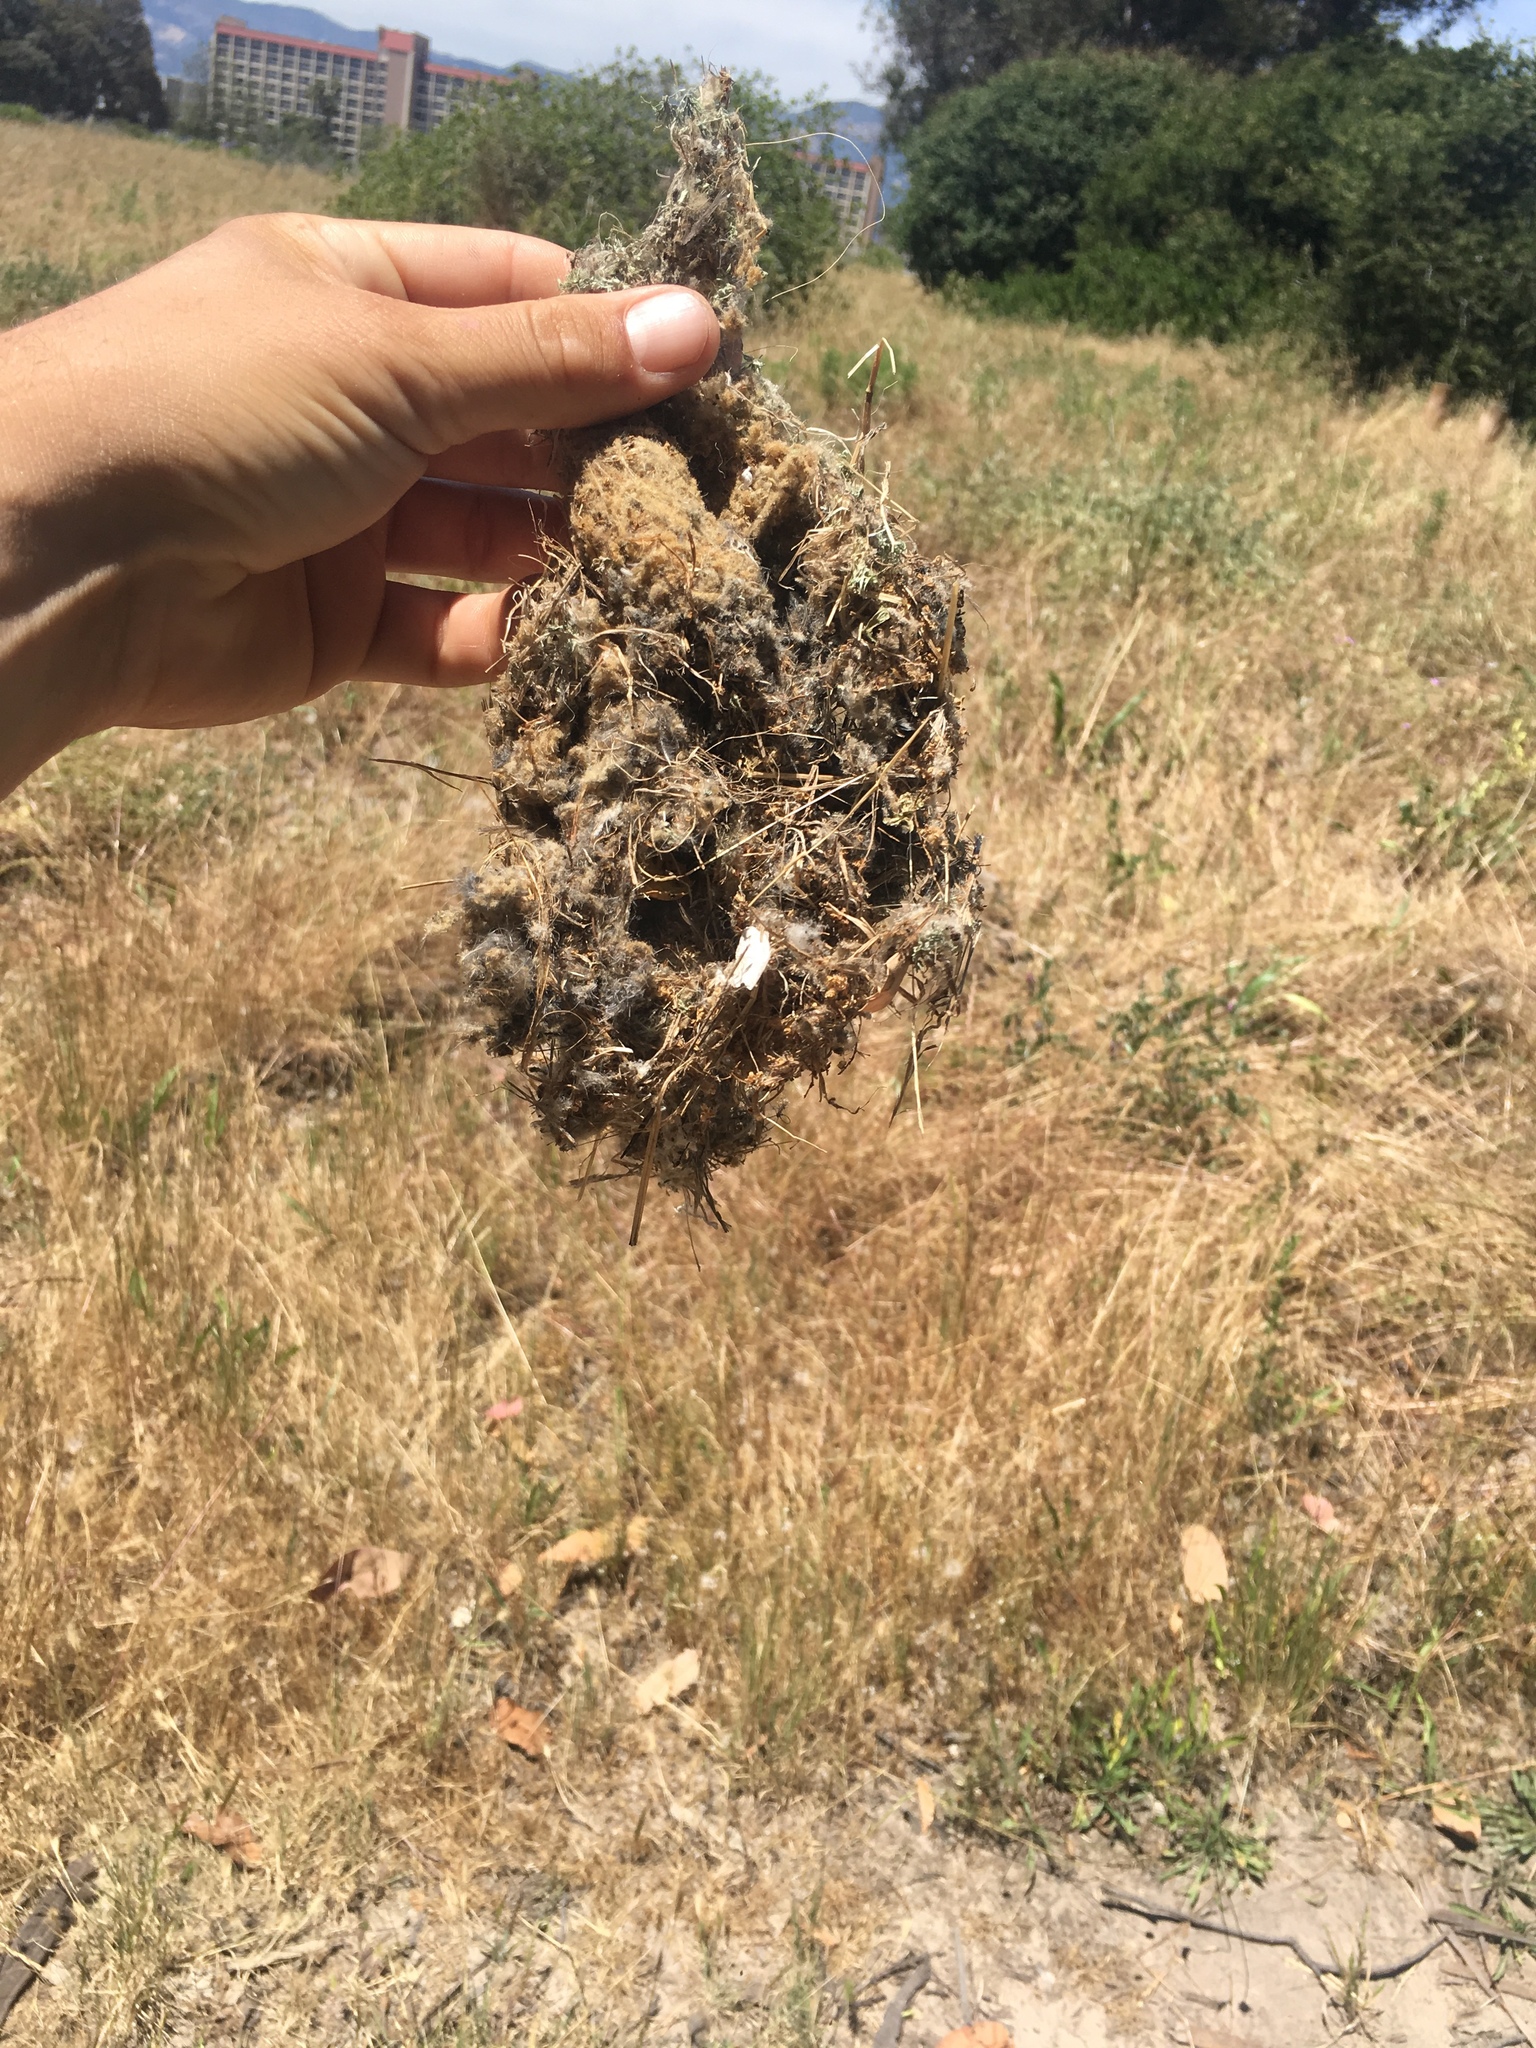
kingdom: Animalia
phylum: Chordata
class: Aves
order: Passeriformes
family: Aegithalidae
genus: Psaltriparus
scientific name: Psaltriparus minimus
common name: American bushtit
